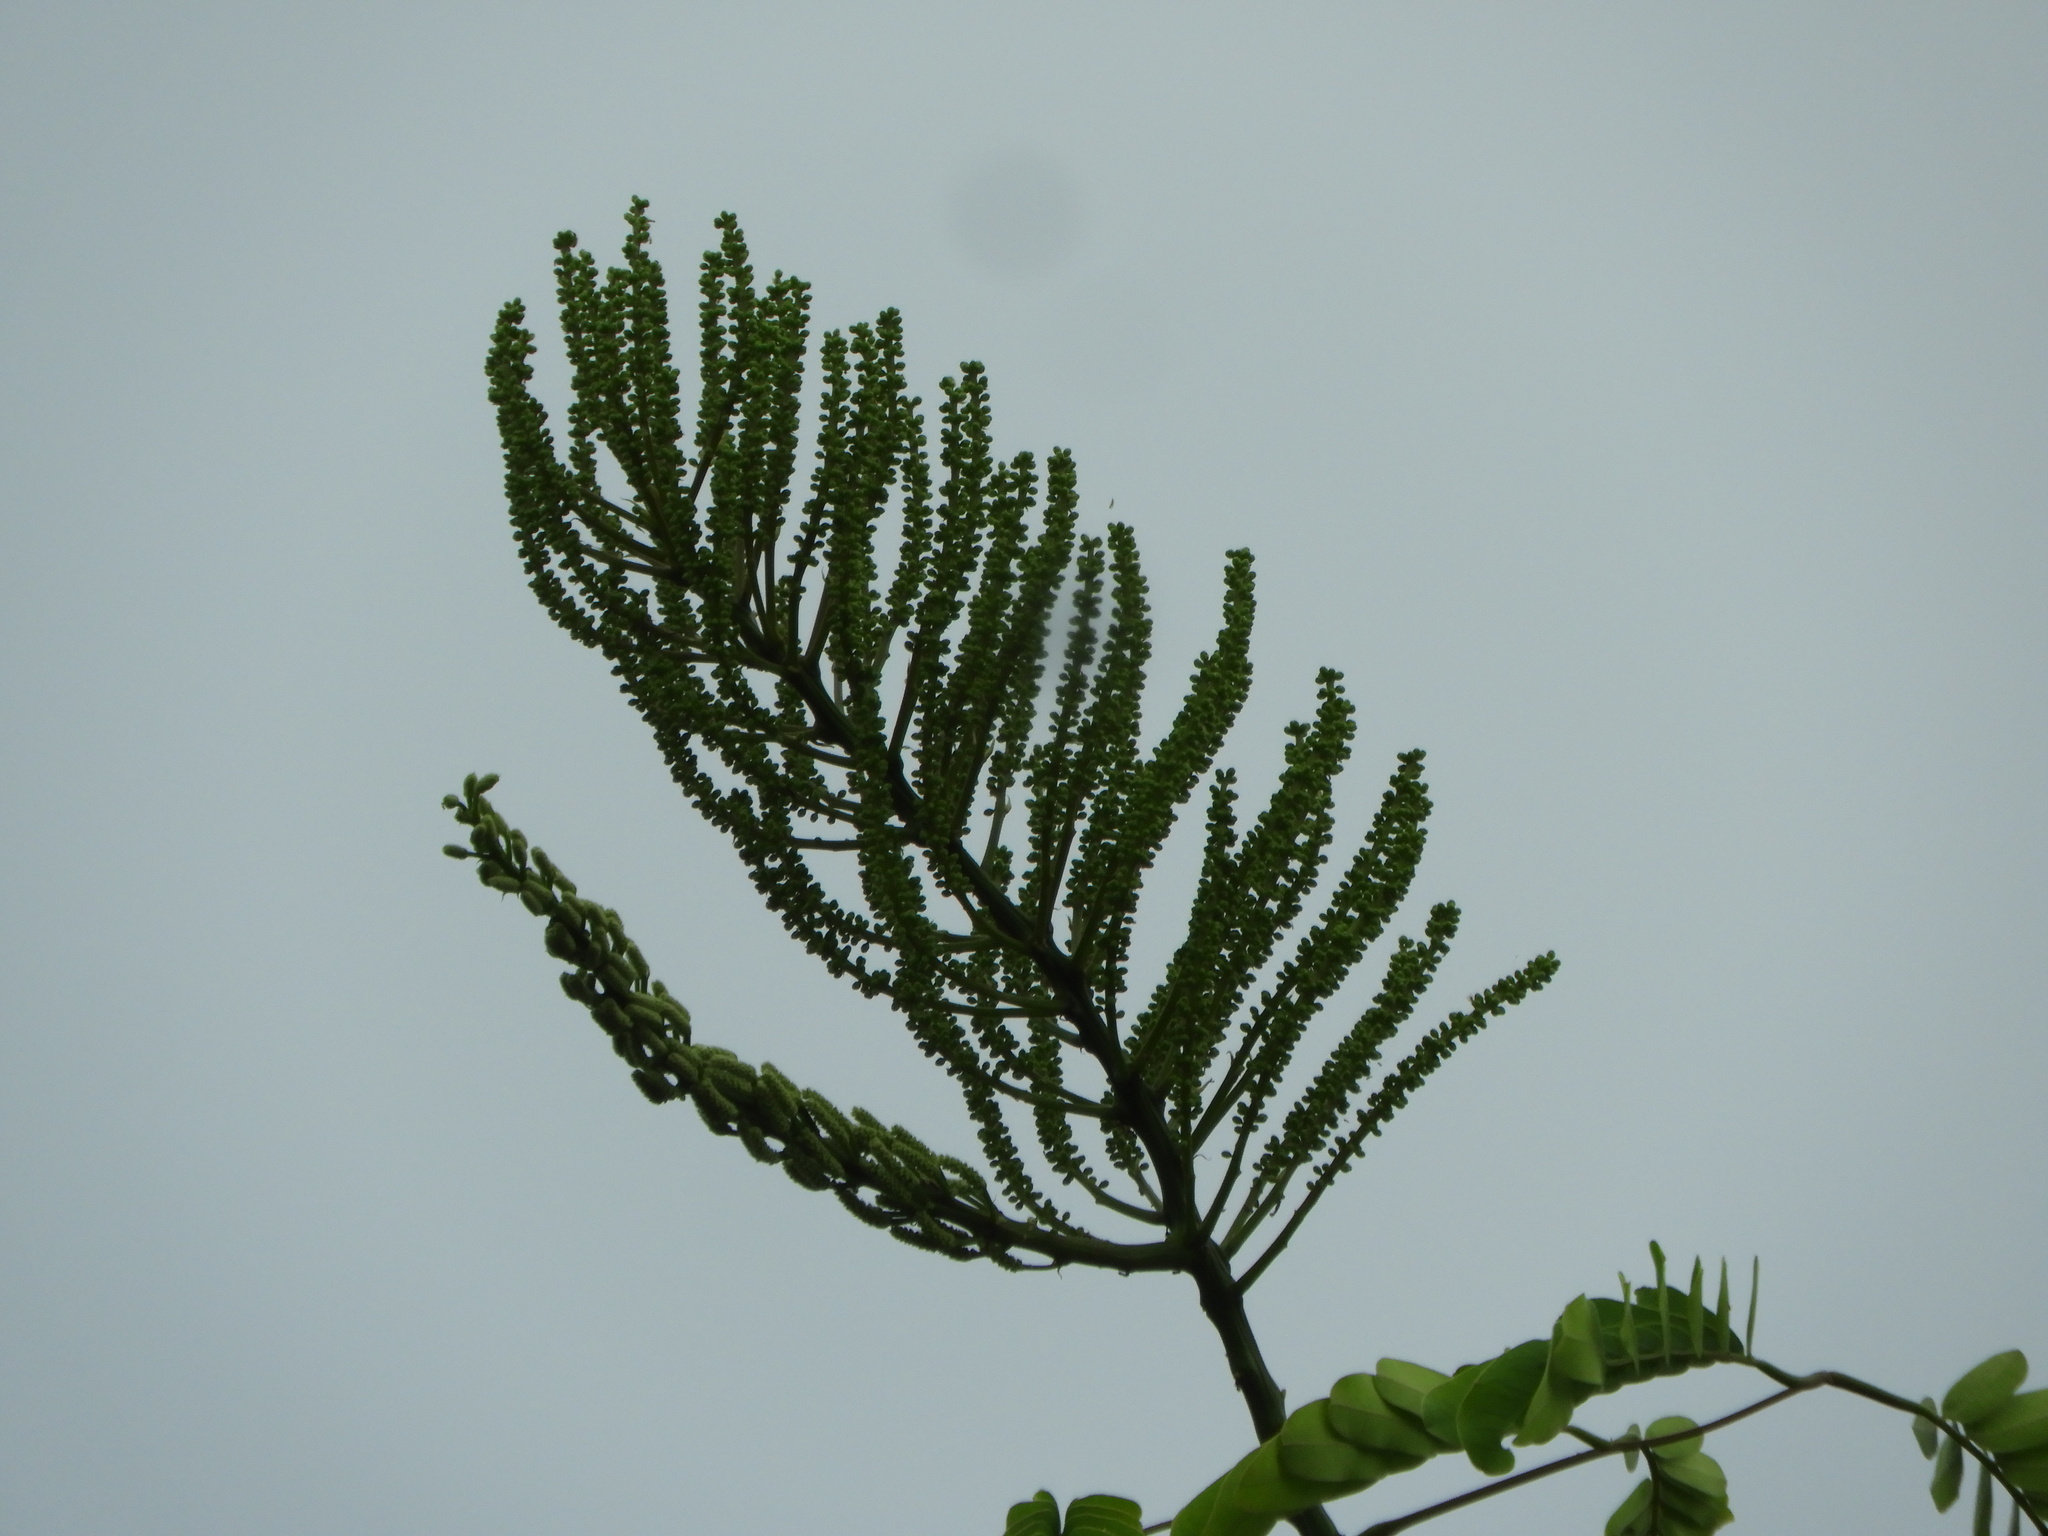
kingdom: Plantae
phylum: Tracheophyta
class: Magnoliopsida
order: Fabales
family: Fabaceae
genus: Entada
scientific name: Entada polystachya
